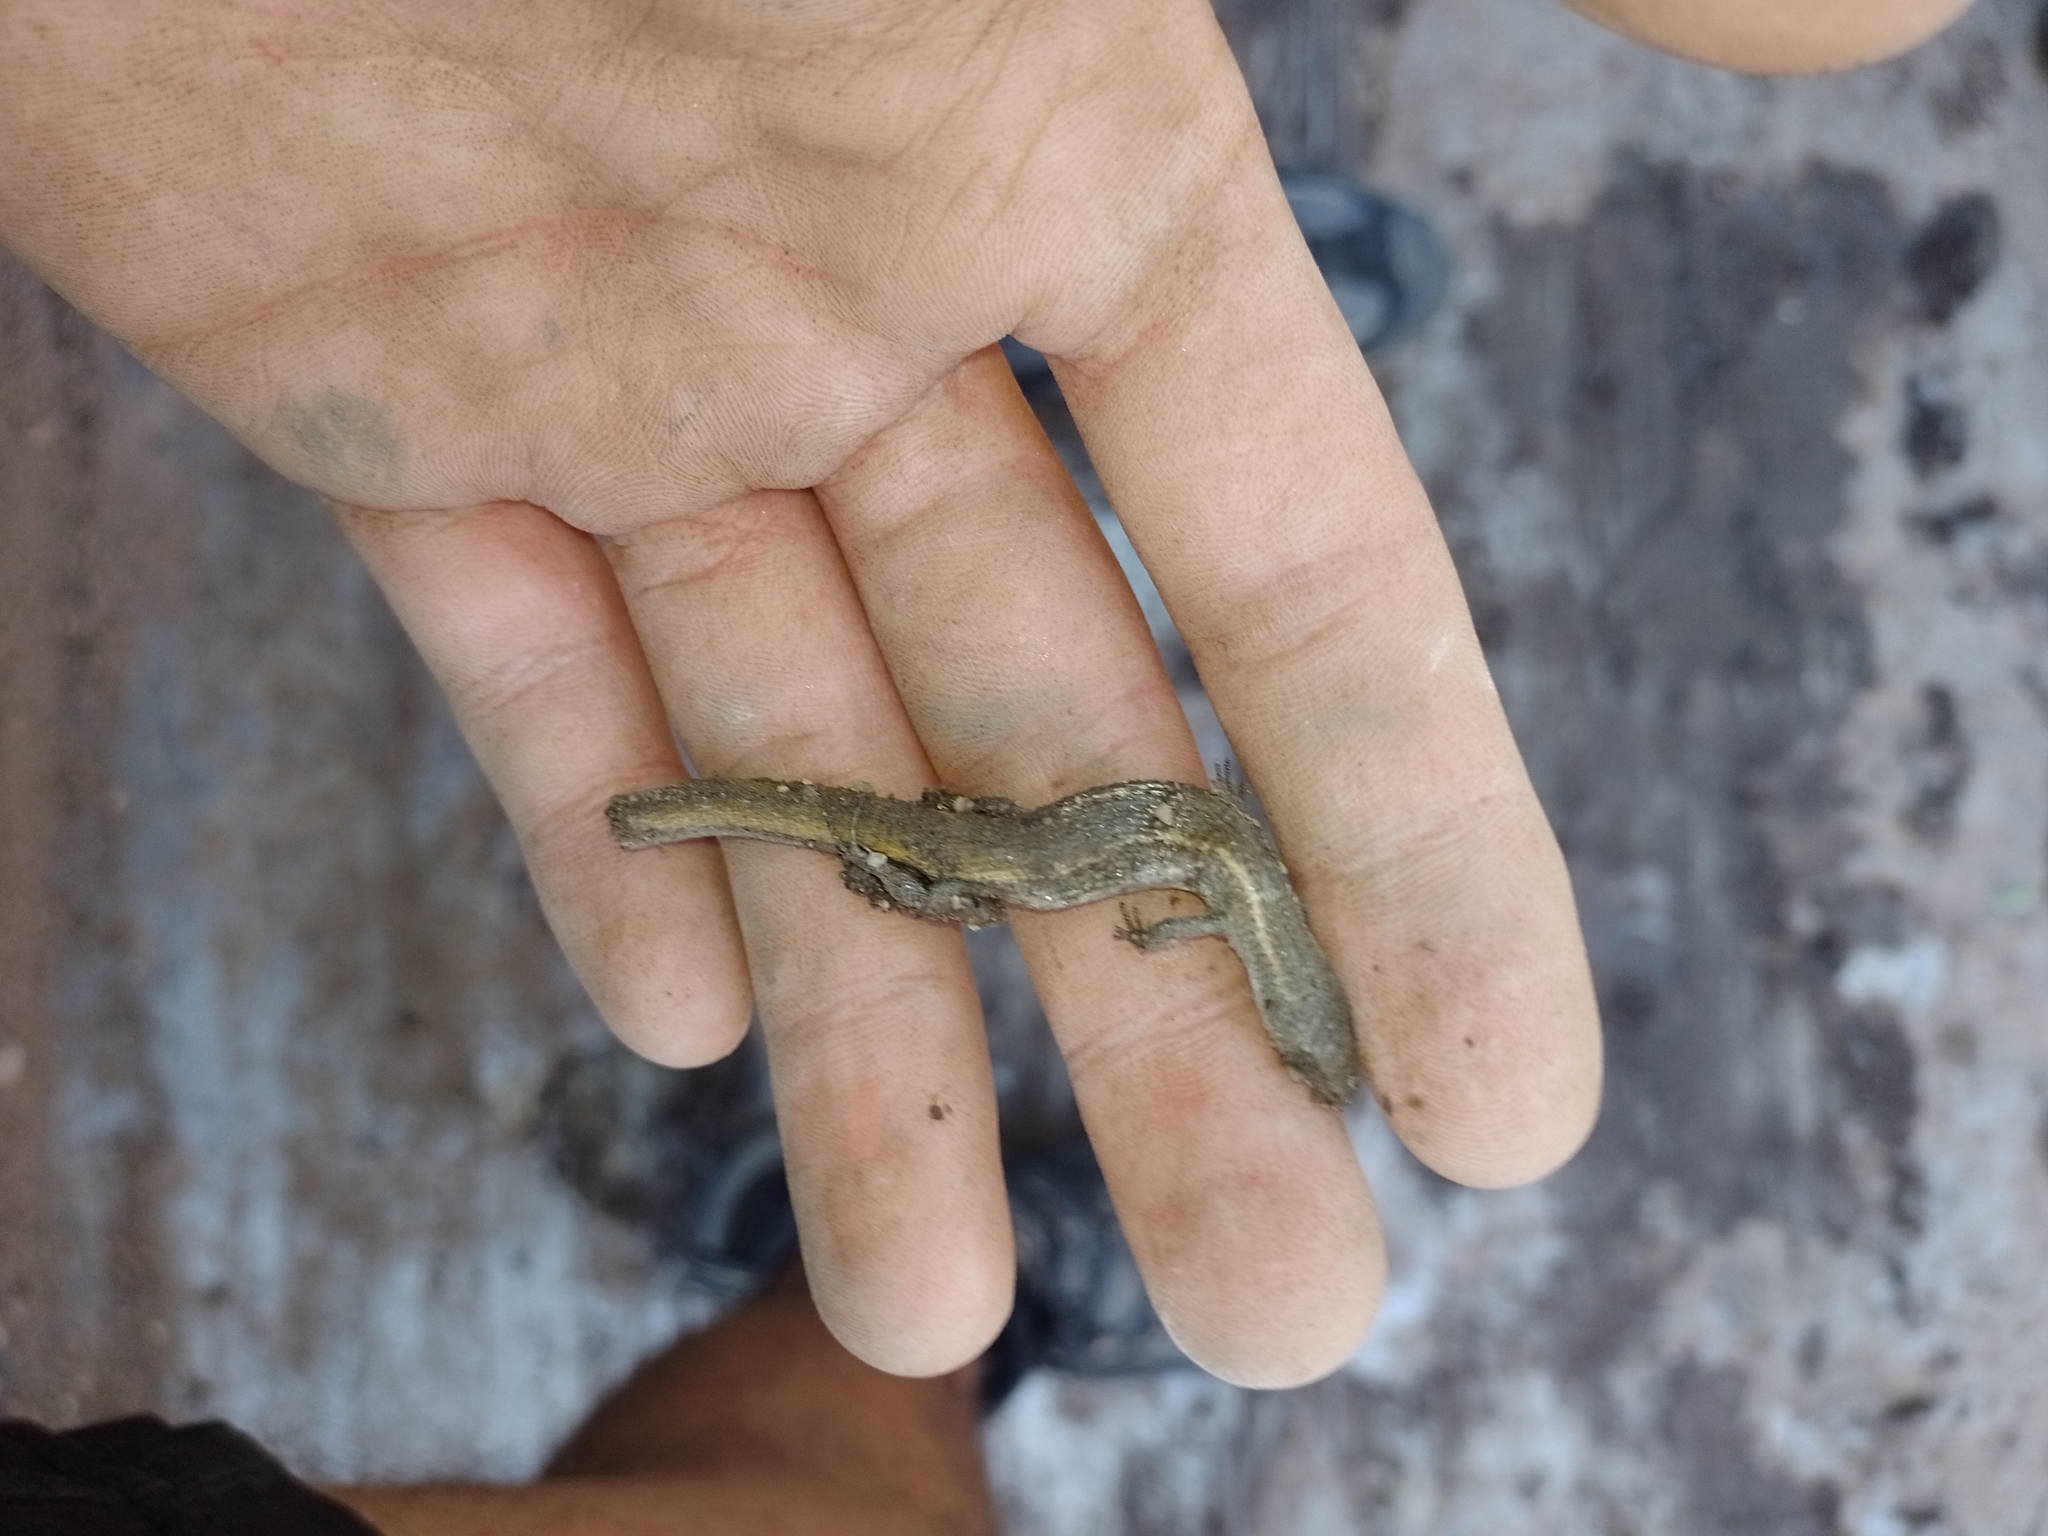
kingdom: Animalia
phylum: Chordata
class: Squamata
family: Gymnophthalmidae
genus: Cercosaura
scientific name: Cercosaura schreibersii
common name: Schreibers' many-fingered teiid
